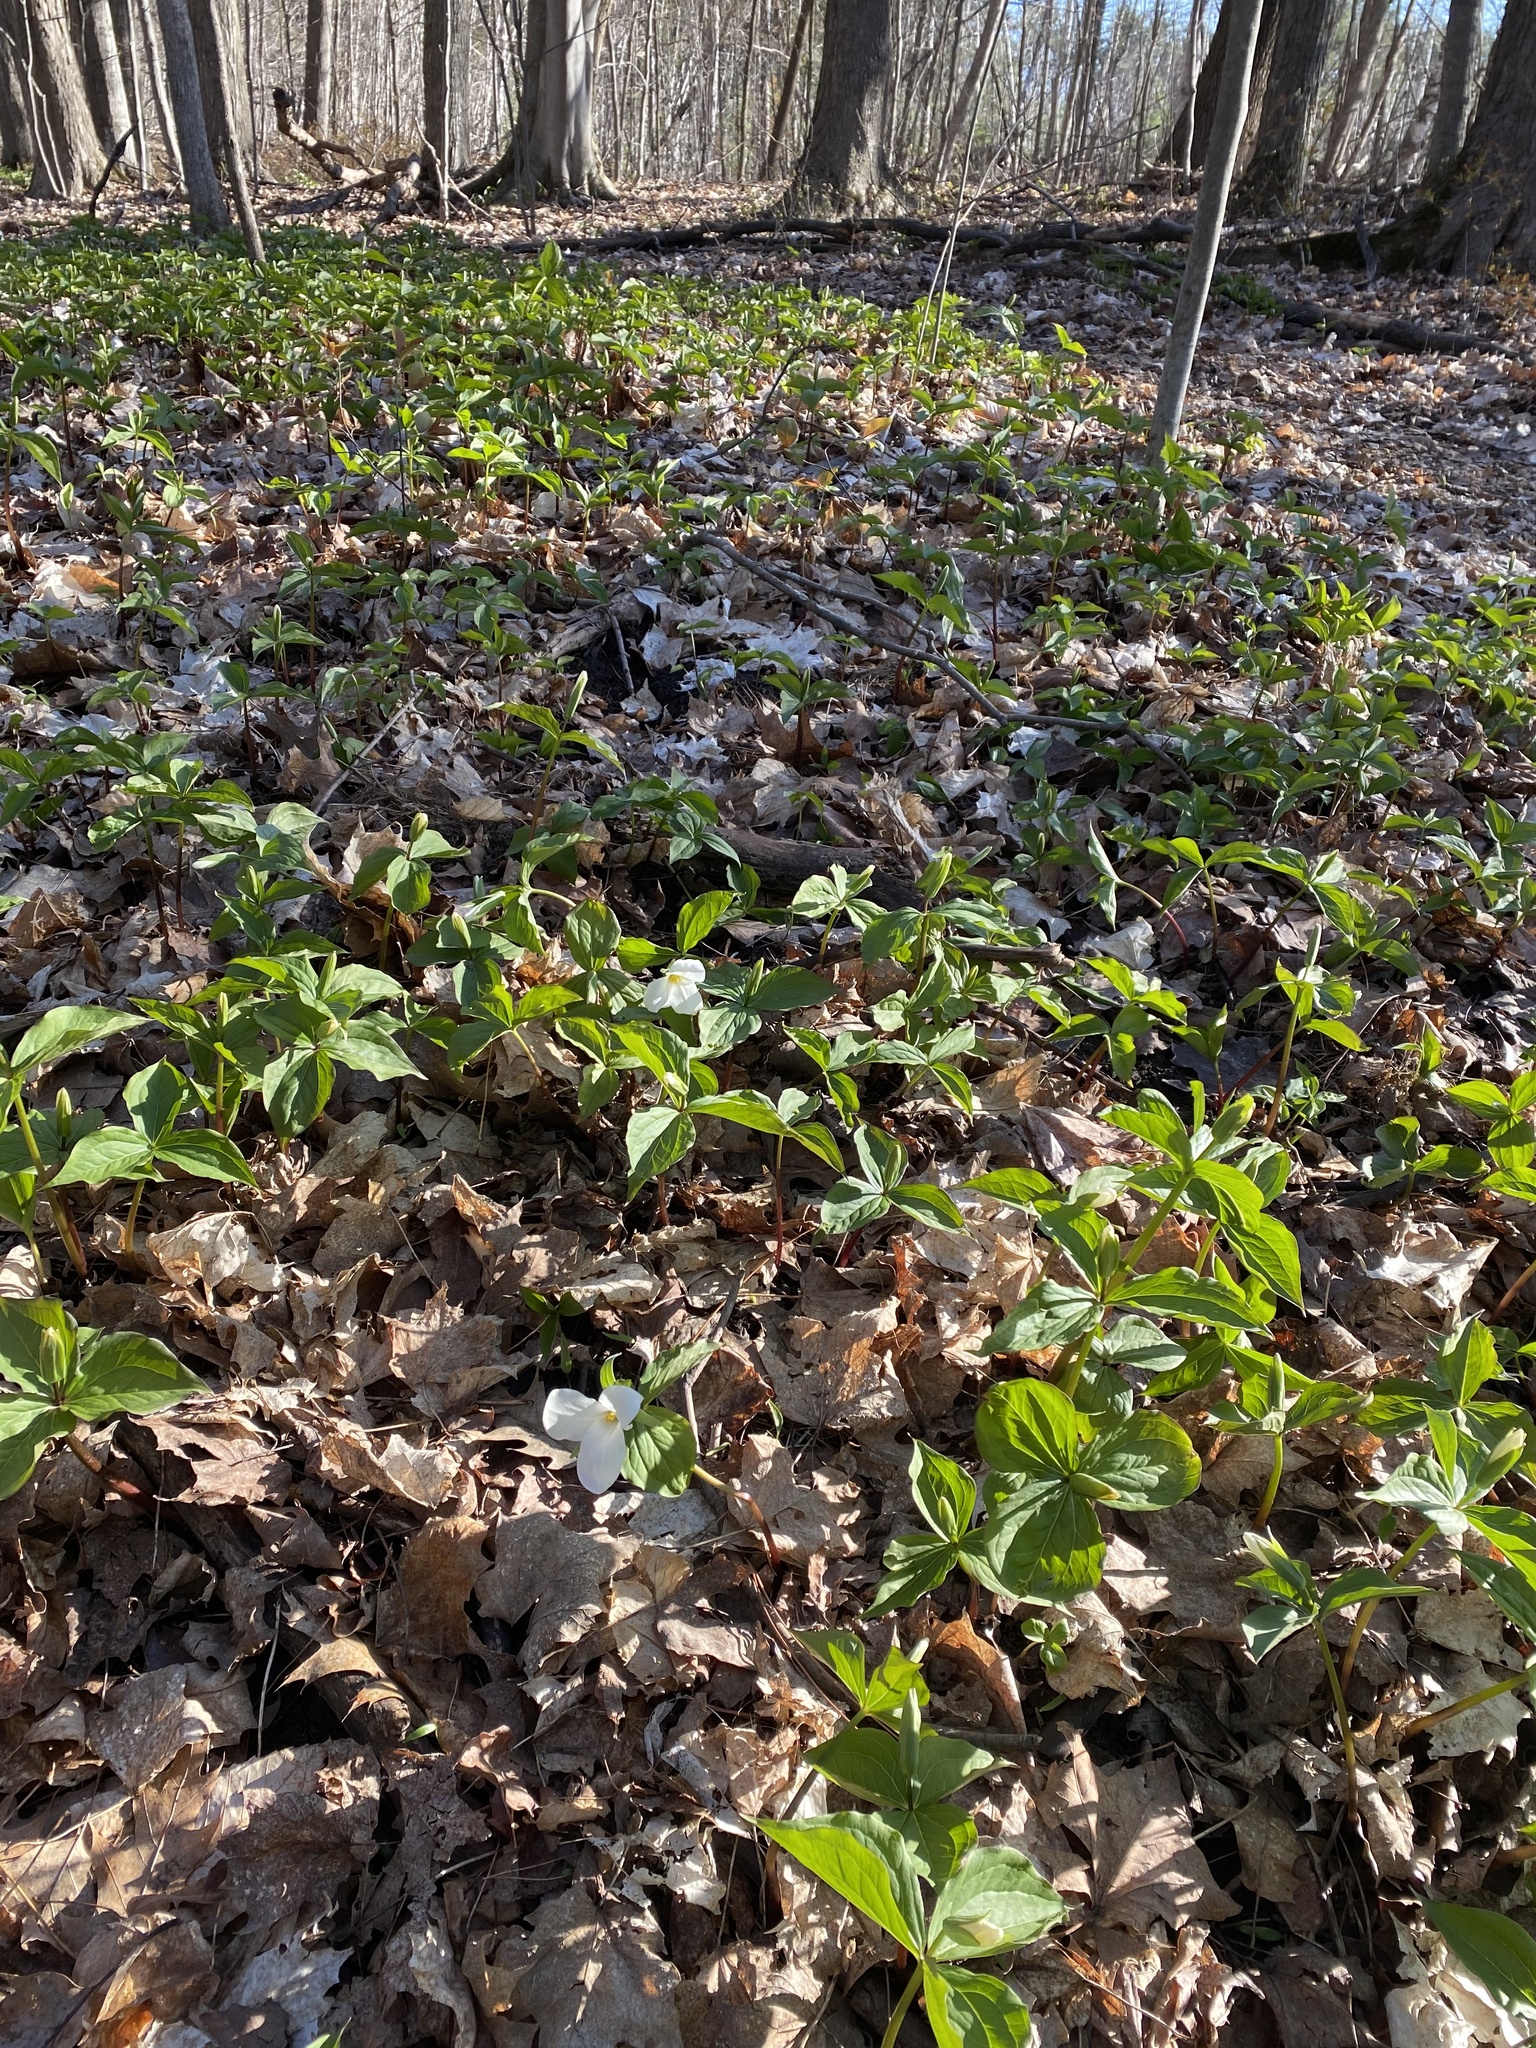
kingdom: Plantae
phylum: Tracheophyta
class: Liliopsida
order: Liliales
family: Melanthiaceae
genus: Trillium
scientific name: Trillium grandiflorum
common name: Great white trillium
